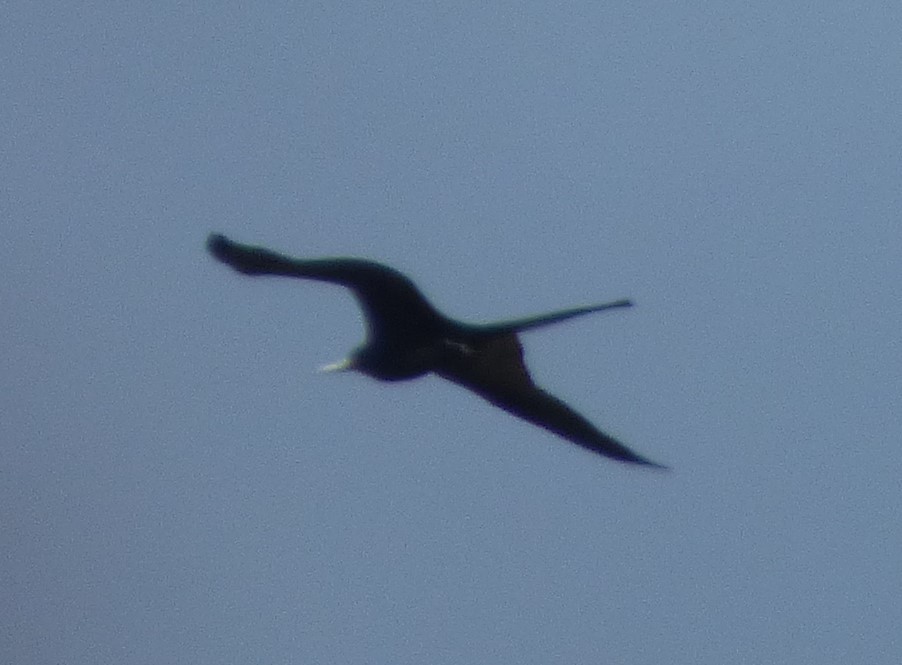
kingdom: Animalia
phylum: Chordata
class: Aves
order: Suliformes
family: Fregatidae
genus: Fregata
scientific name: Fregata magnificens
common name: Magnificent frigatebird
